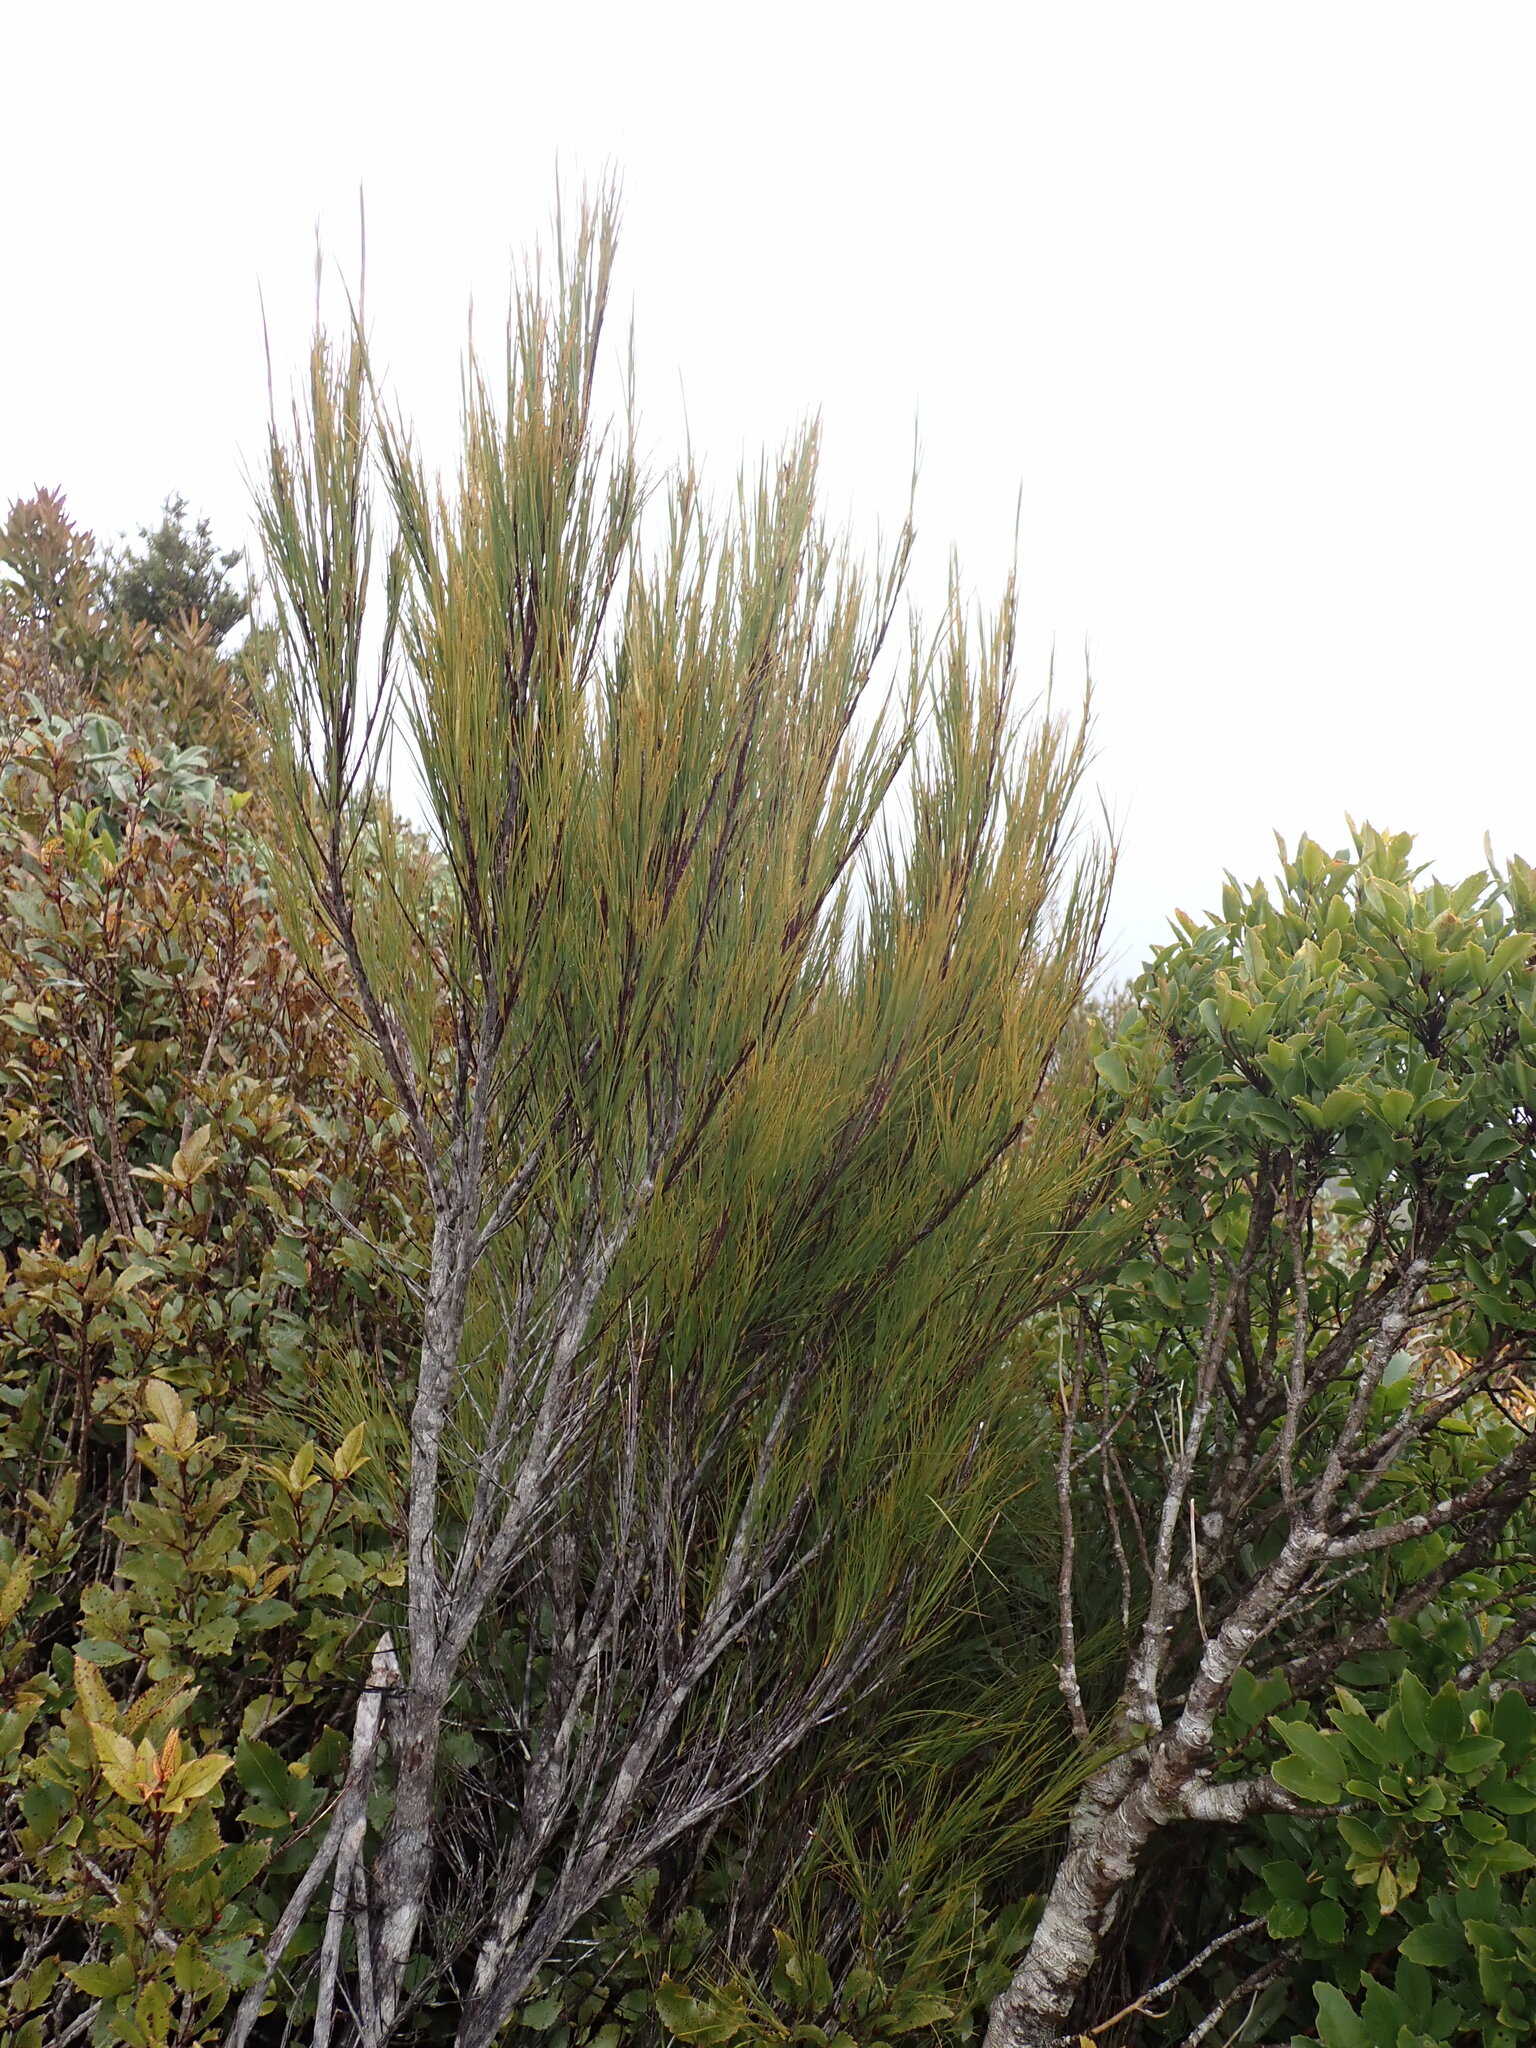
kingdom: Plantae
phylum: Tracheophyta
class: Magnoliopsida
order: Ericales
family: Ericaceae
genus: Dracophyllum
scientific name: Dracophyllum filifolium
